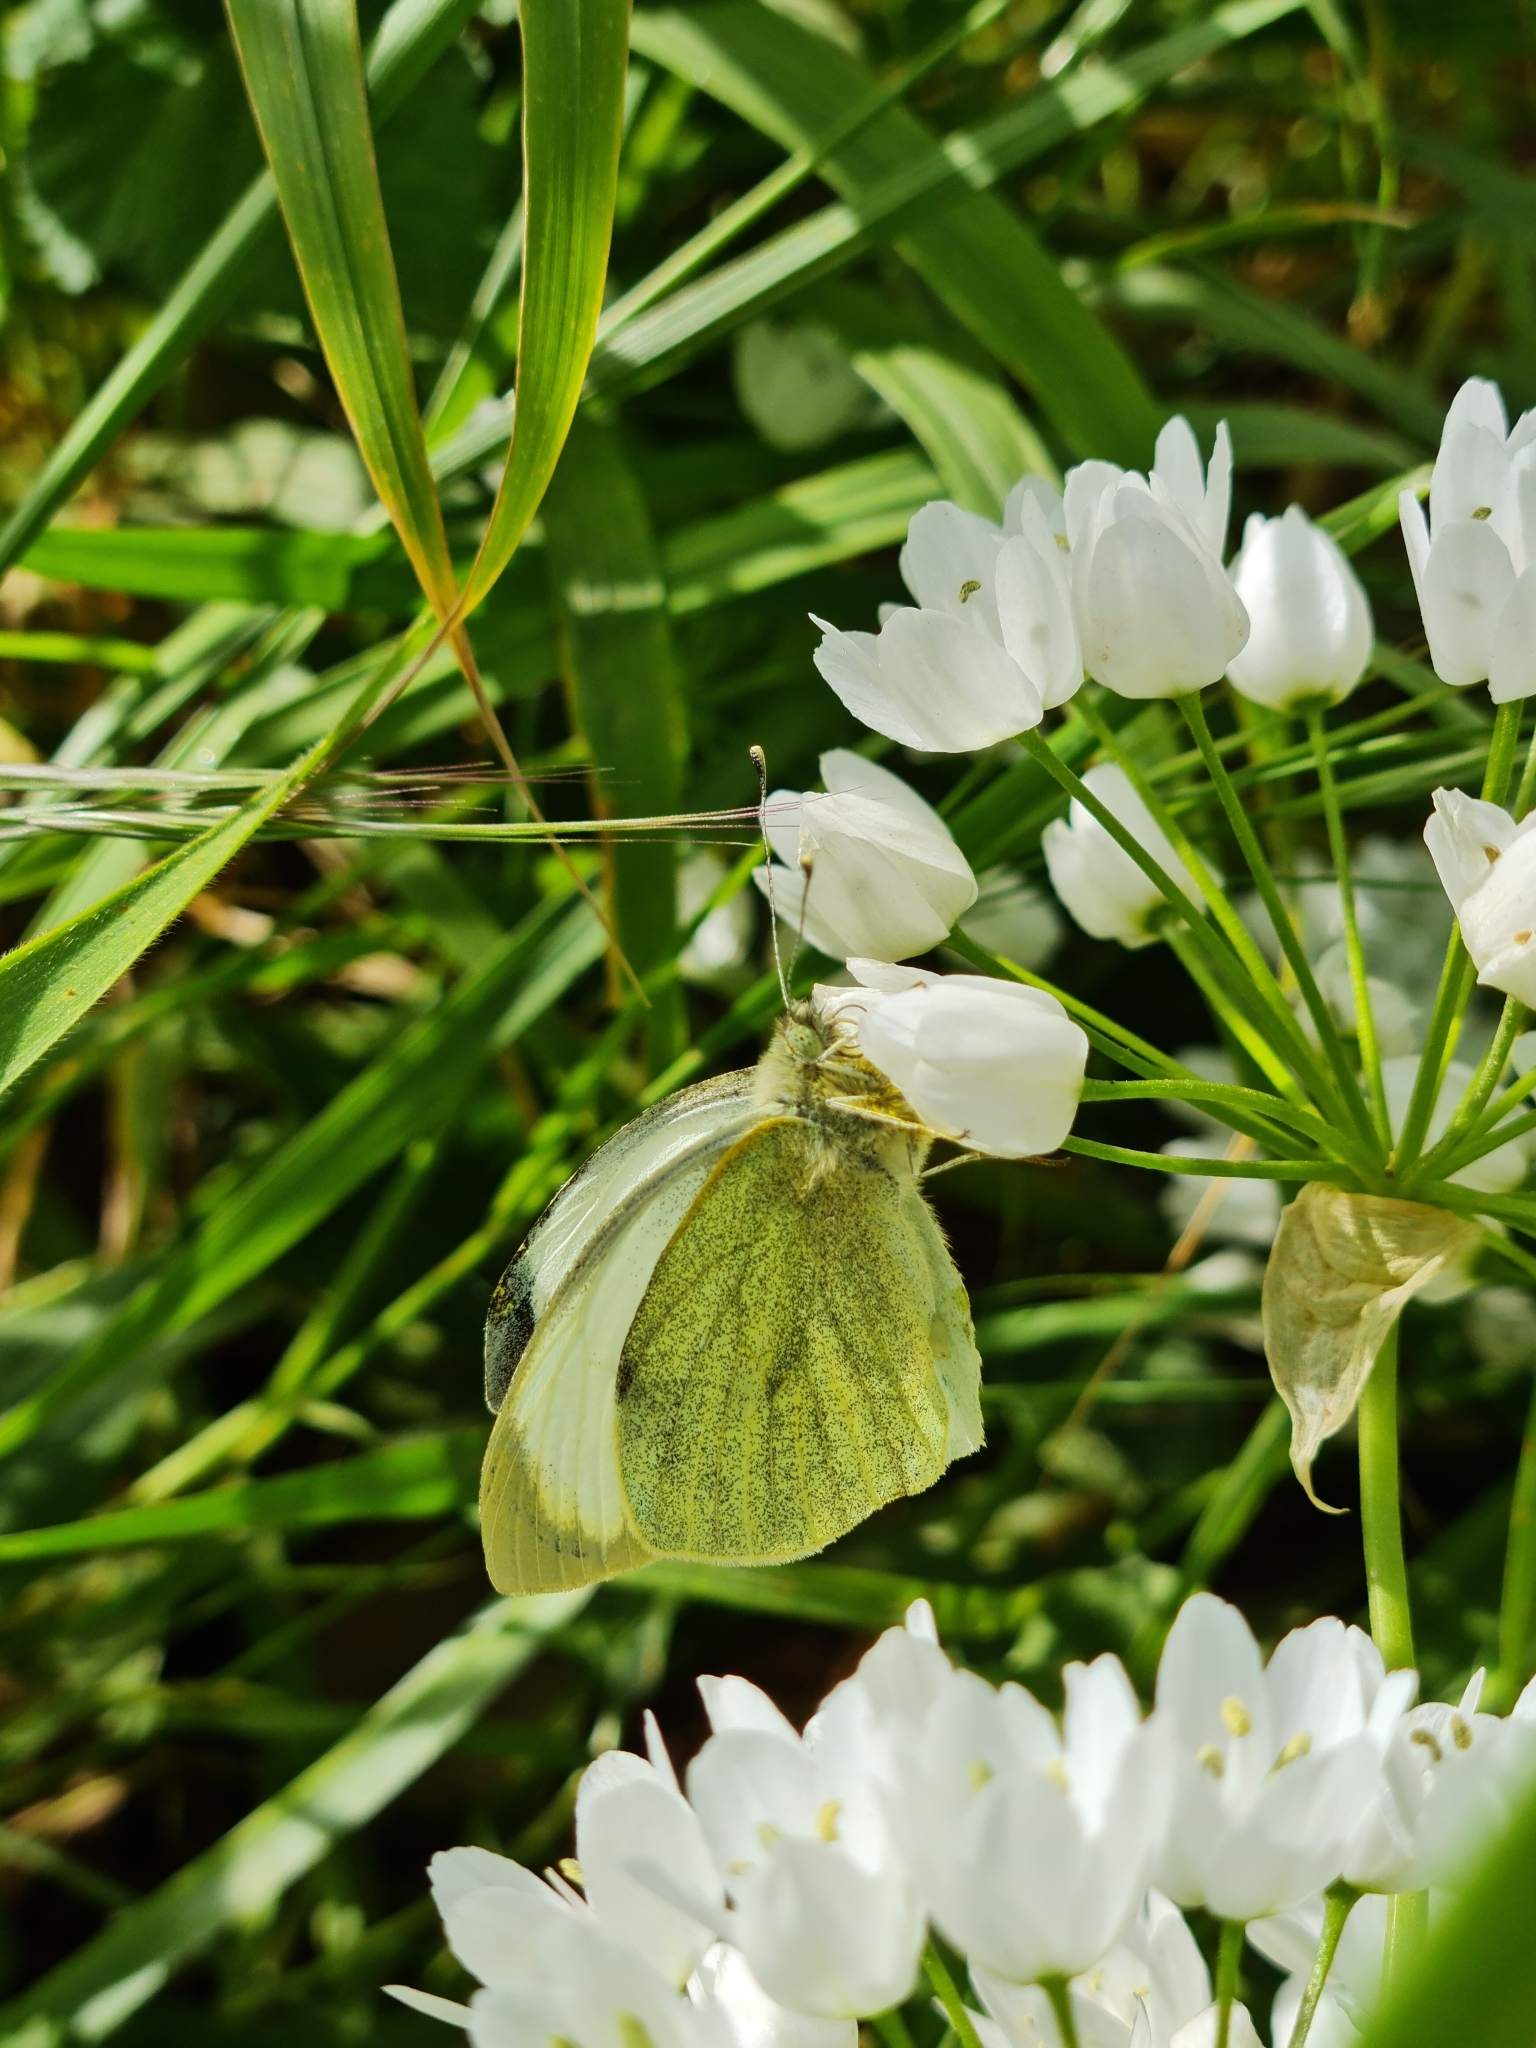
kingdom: Animalia
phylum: Arthropoda
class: Insecta
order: Lepidoptera
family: Pieridae
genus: Pieris
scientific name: Pieris brassicae
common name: Large white
